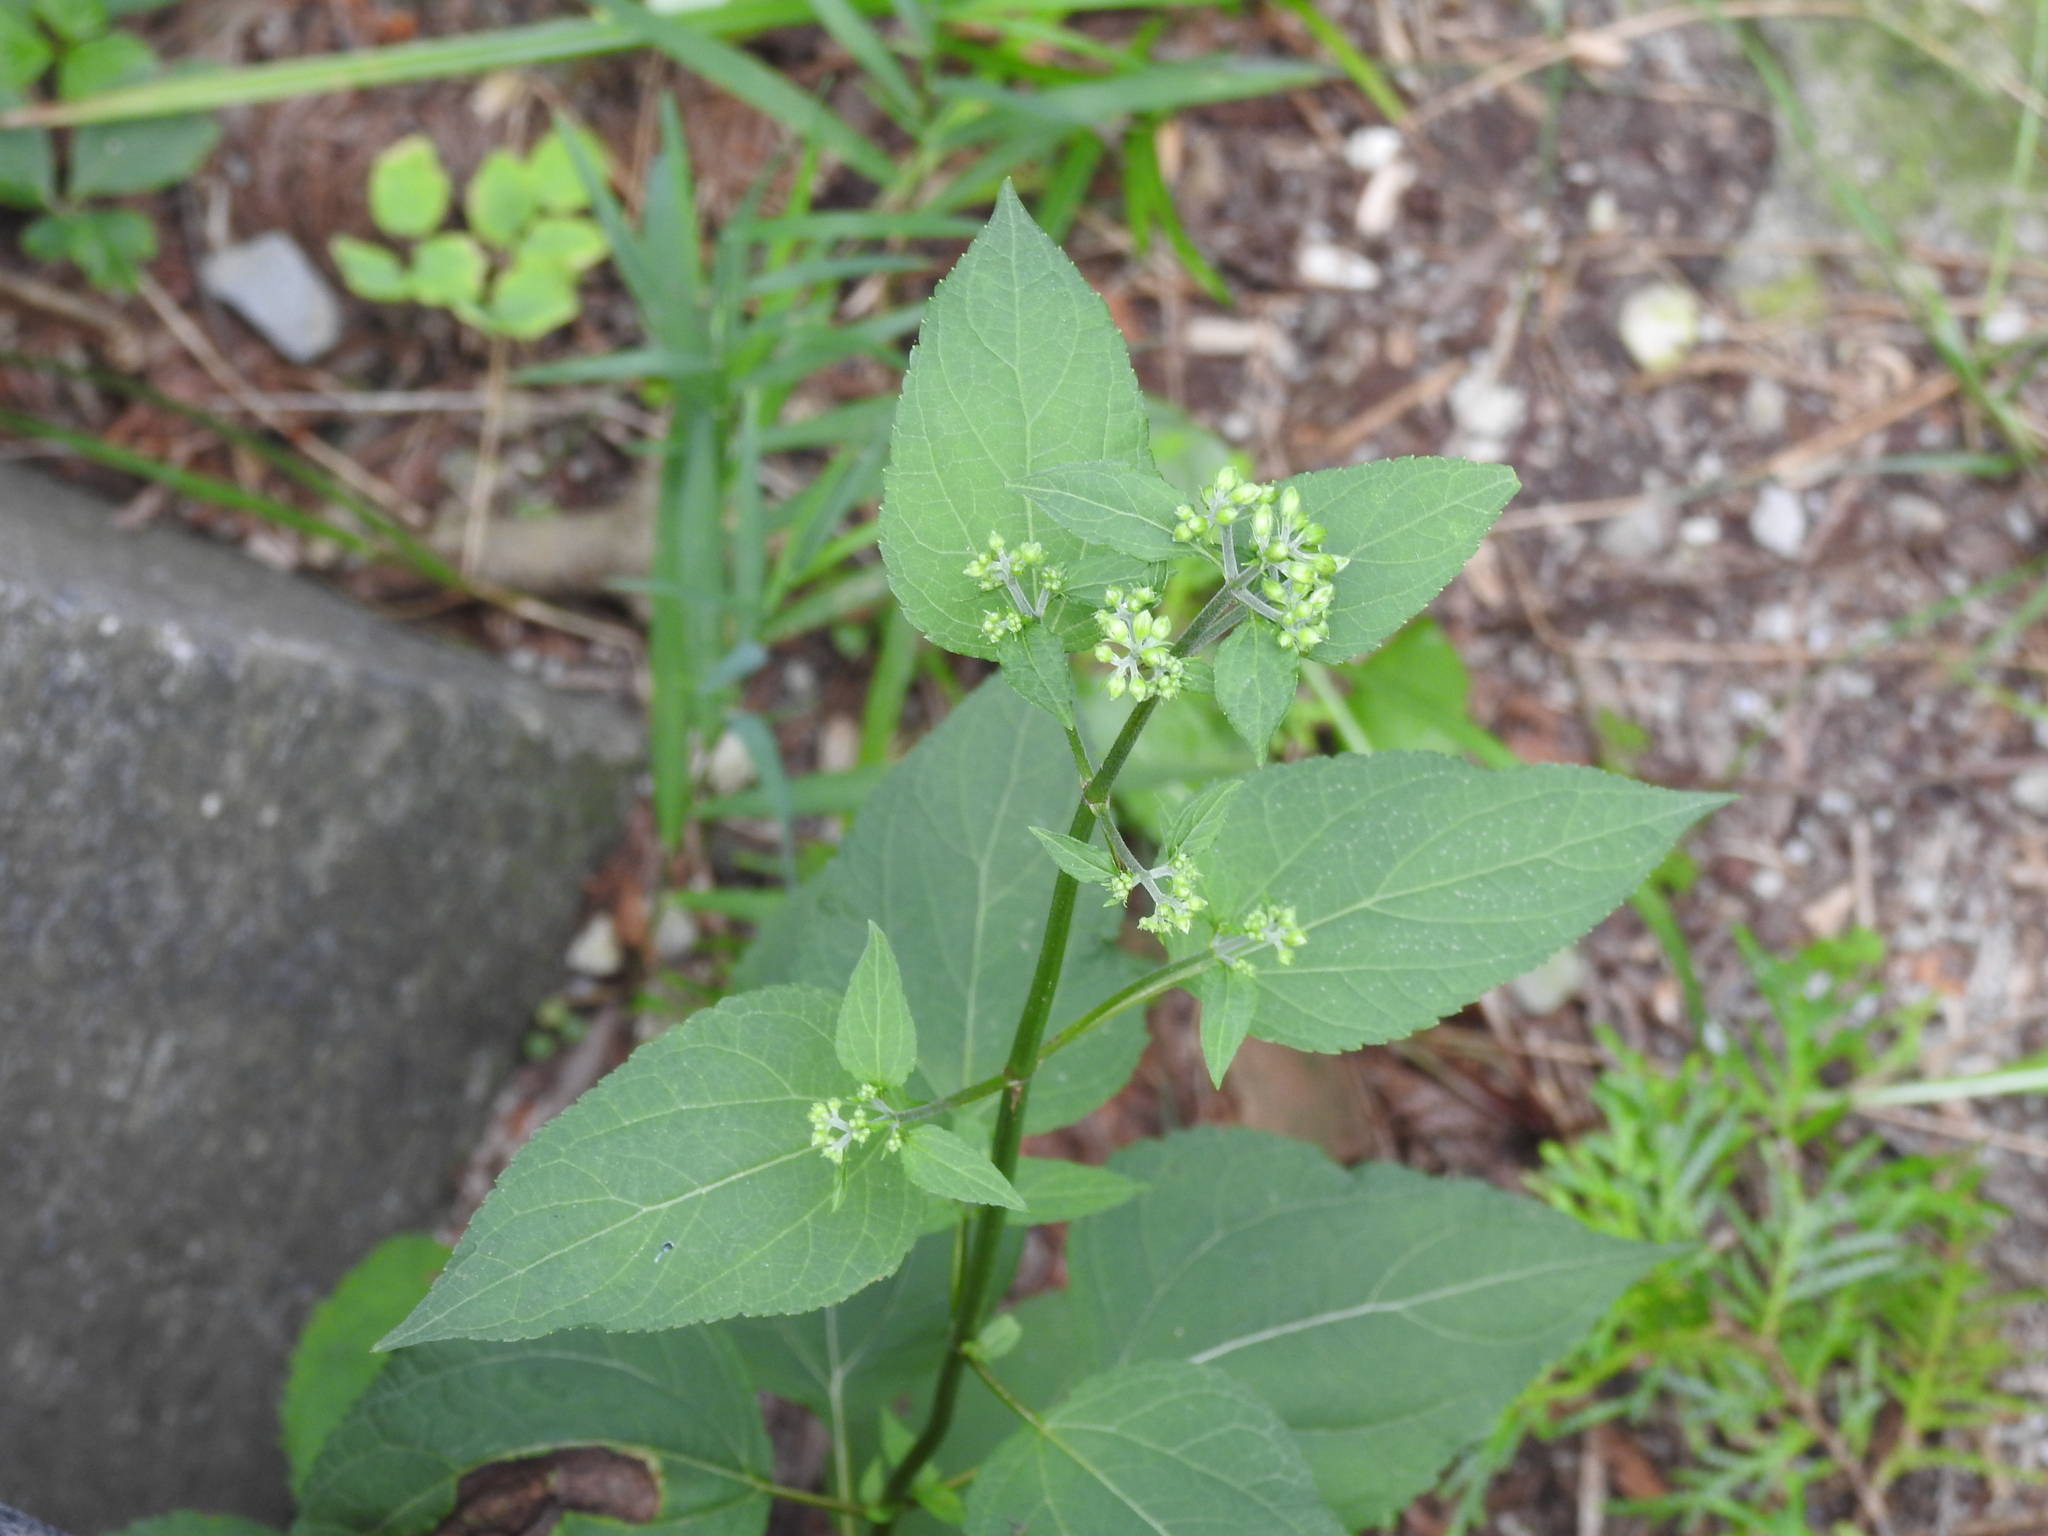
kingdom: Plantae
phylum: Tracheophyta
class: Magnoliopsida
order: Asterales
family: Asteraceae
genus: Ageratina
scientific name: Ageratina altissima
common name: White snakeroot
